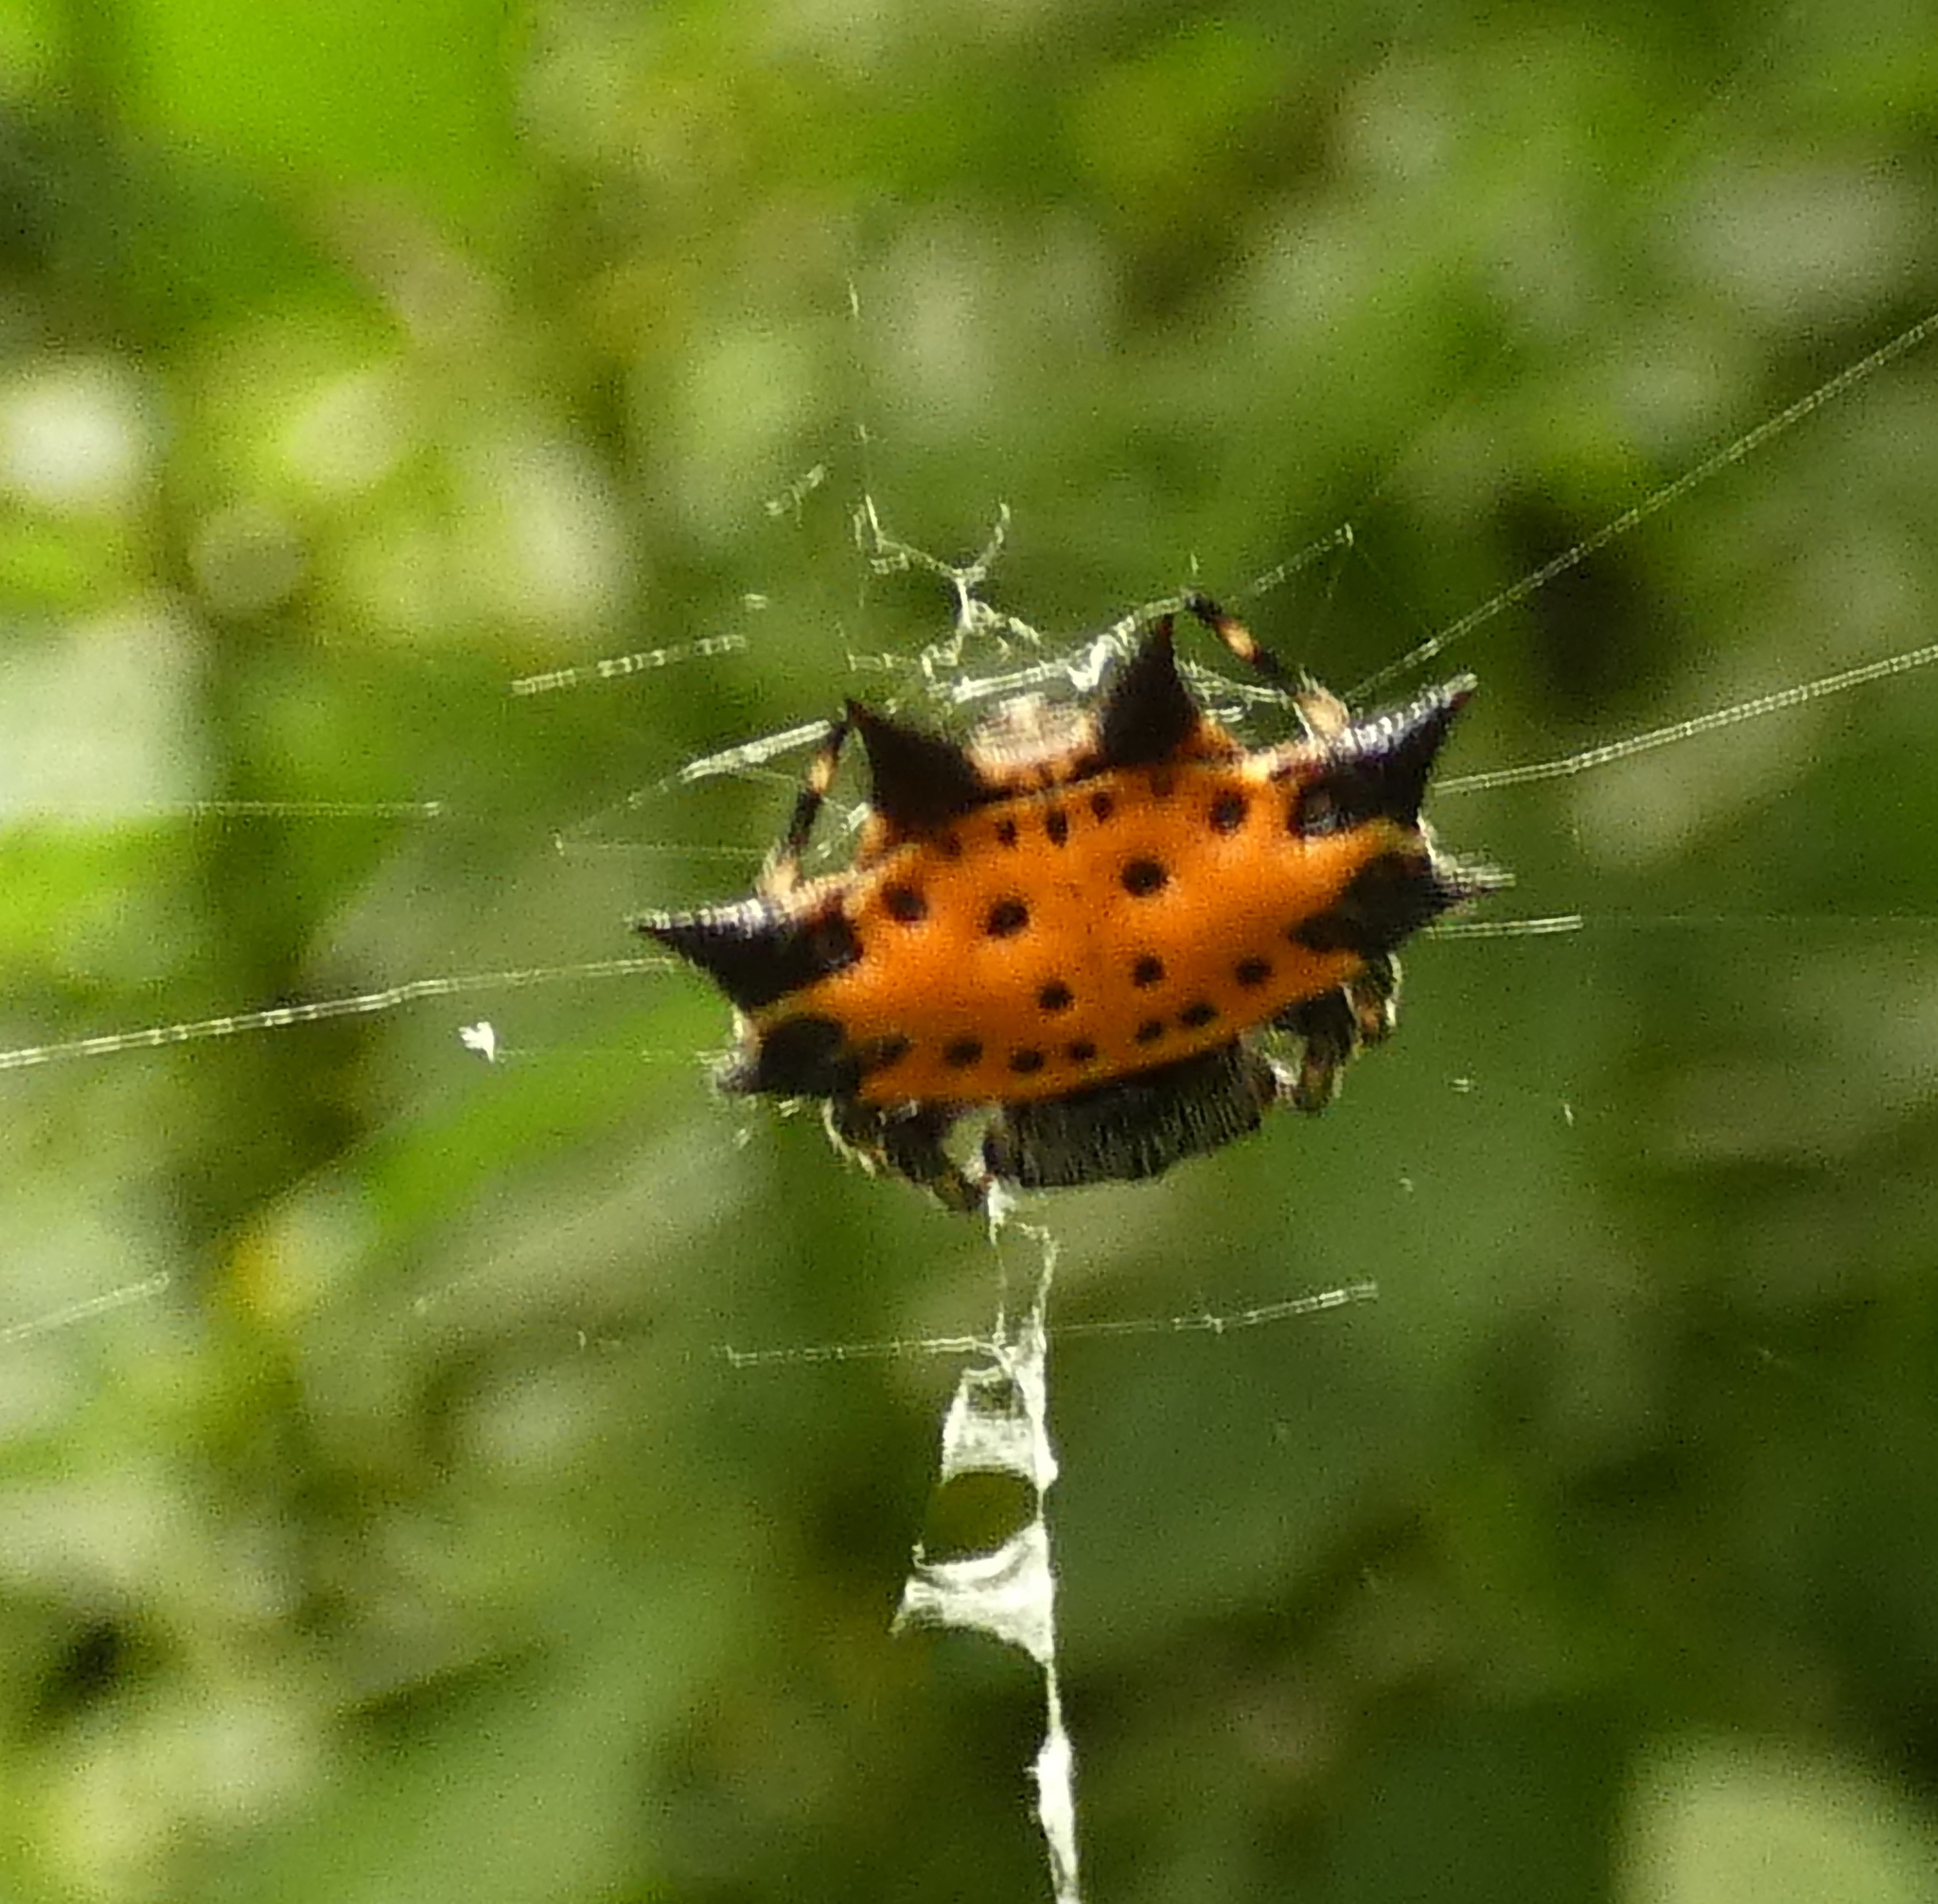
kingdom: Animalia
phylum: Arthropoda
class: Arachnida
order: Araneae
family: Araneidae
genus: Gasteracantha
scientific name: Gasteracantha cancriformis
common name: Orb weavers
